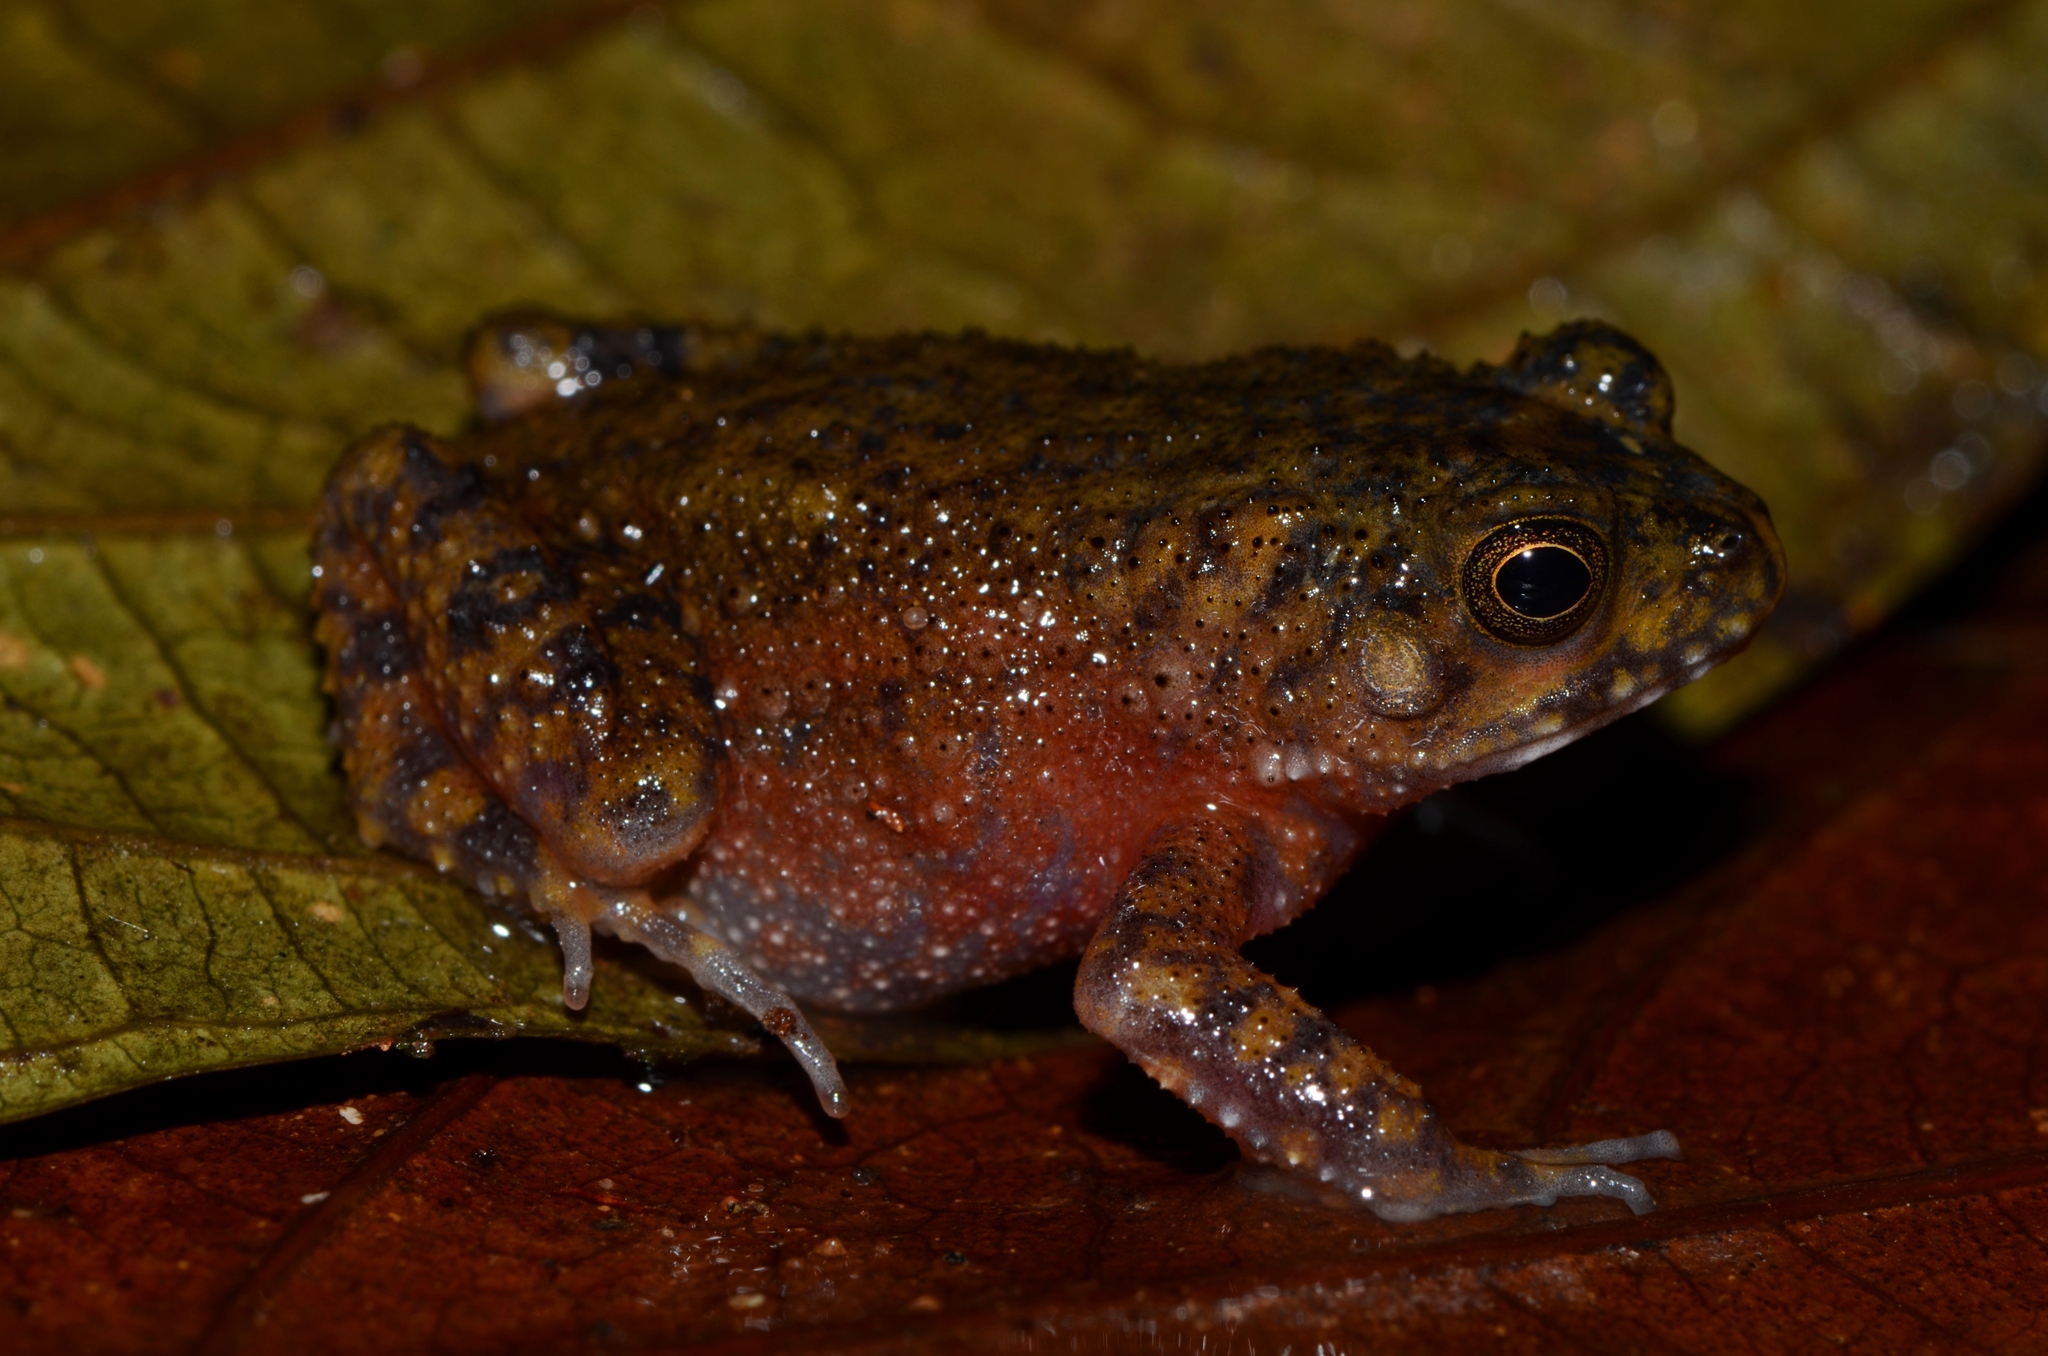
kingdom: Animalia
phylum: Chordata
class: Amphibia
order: Anura
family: Bufonidae
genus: Sclerophrys
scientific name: Sclerophrys gracilipes
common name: French congo toad
